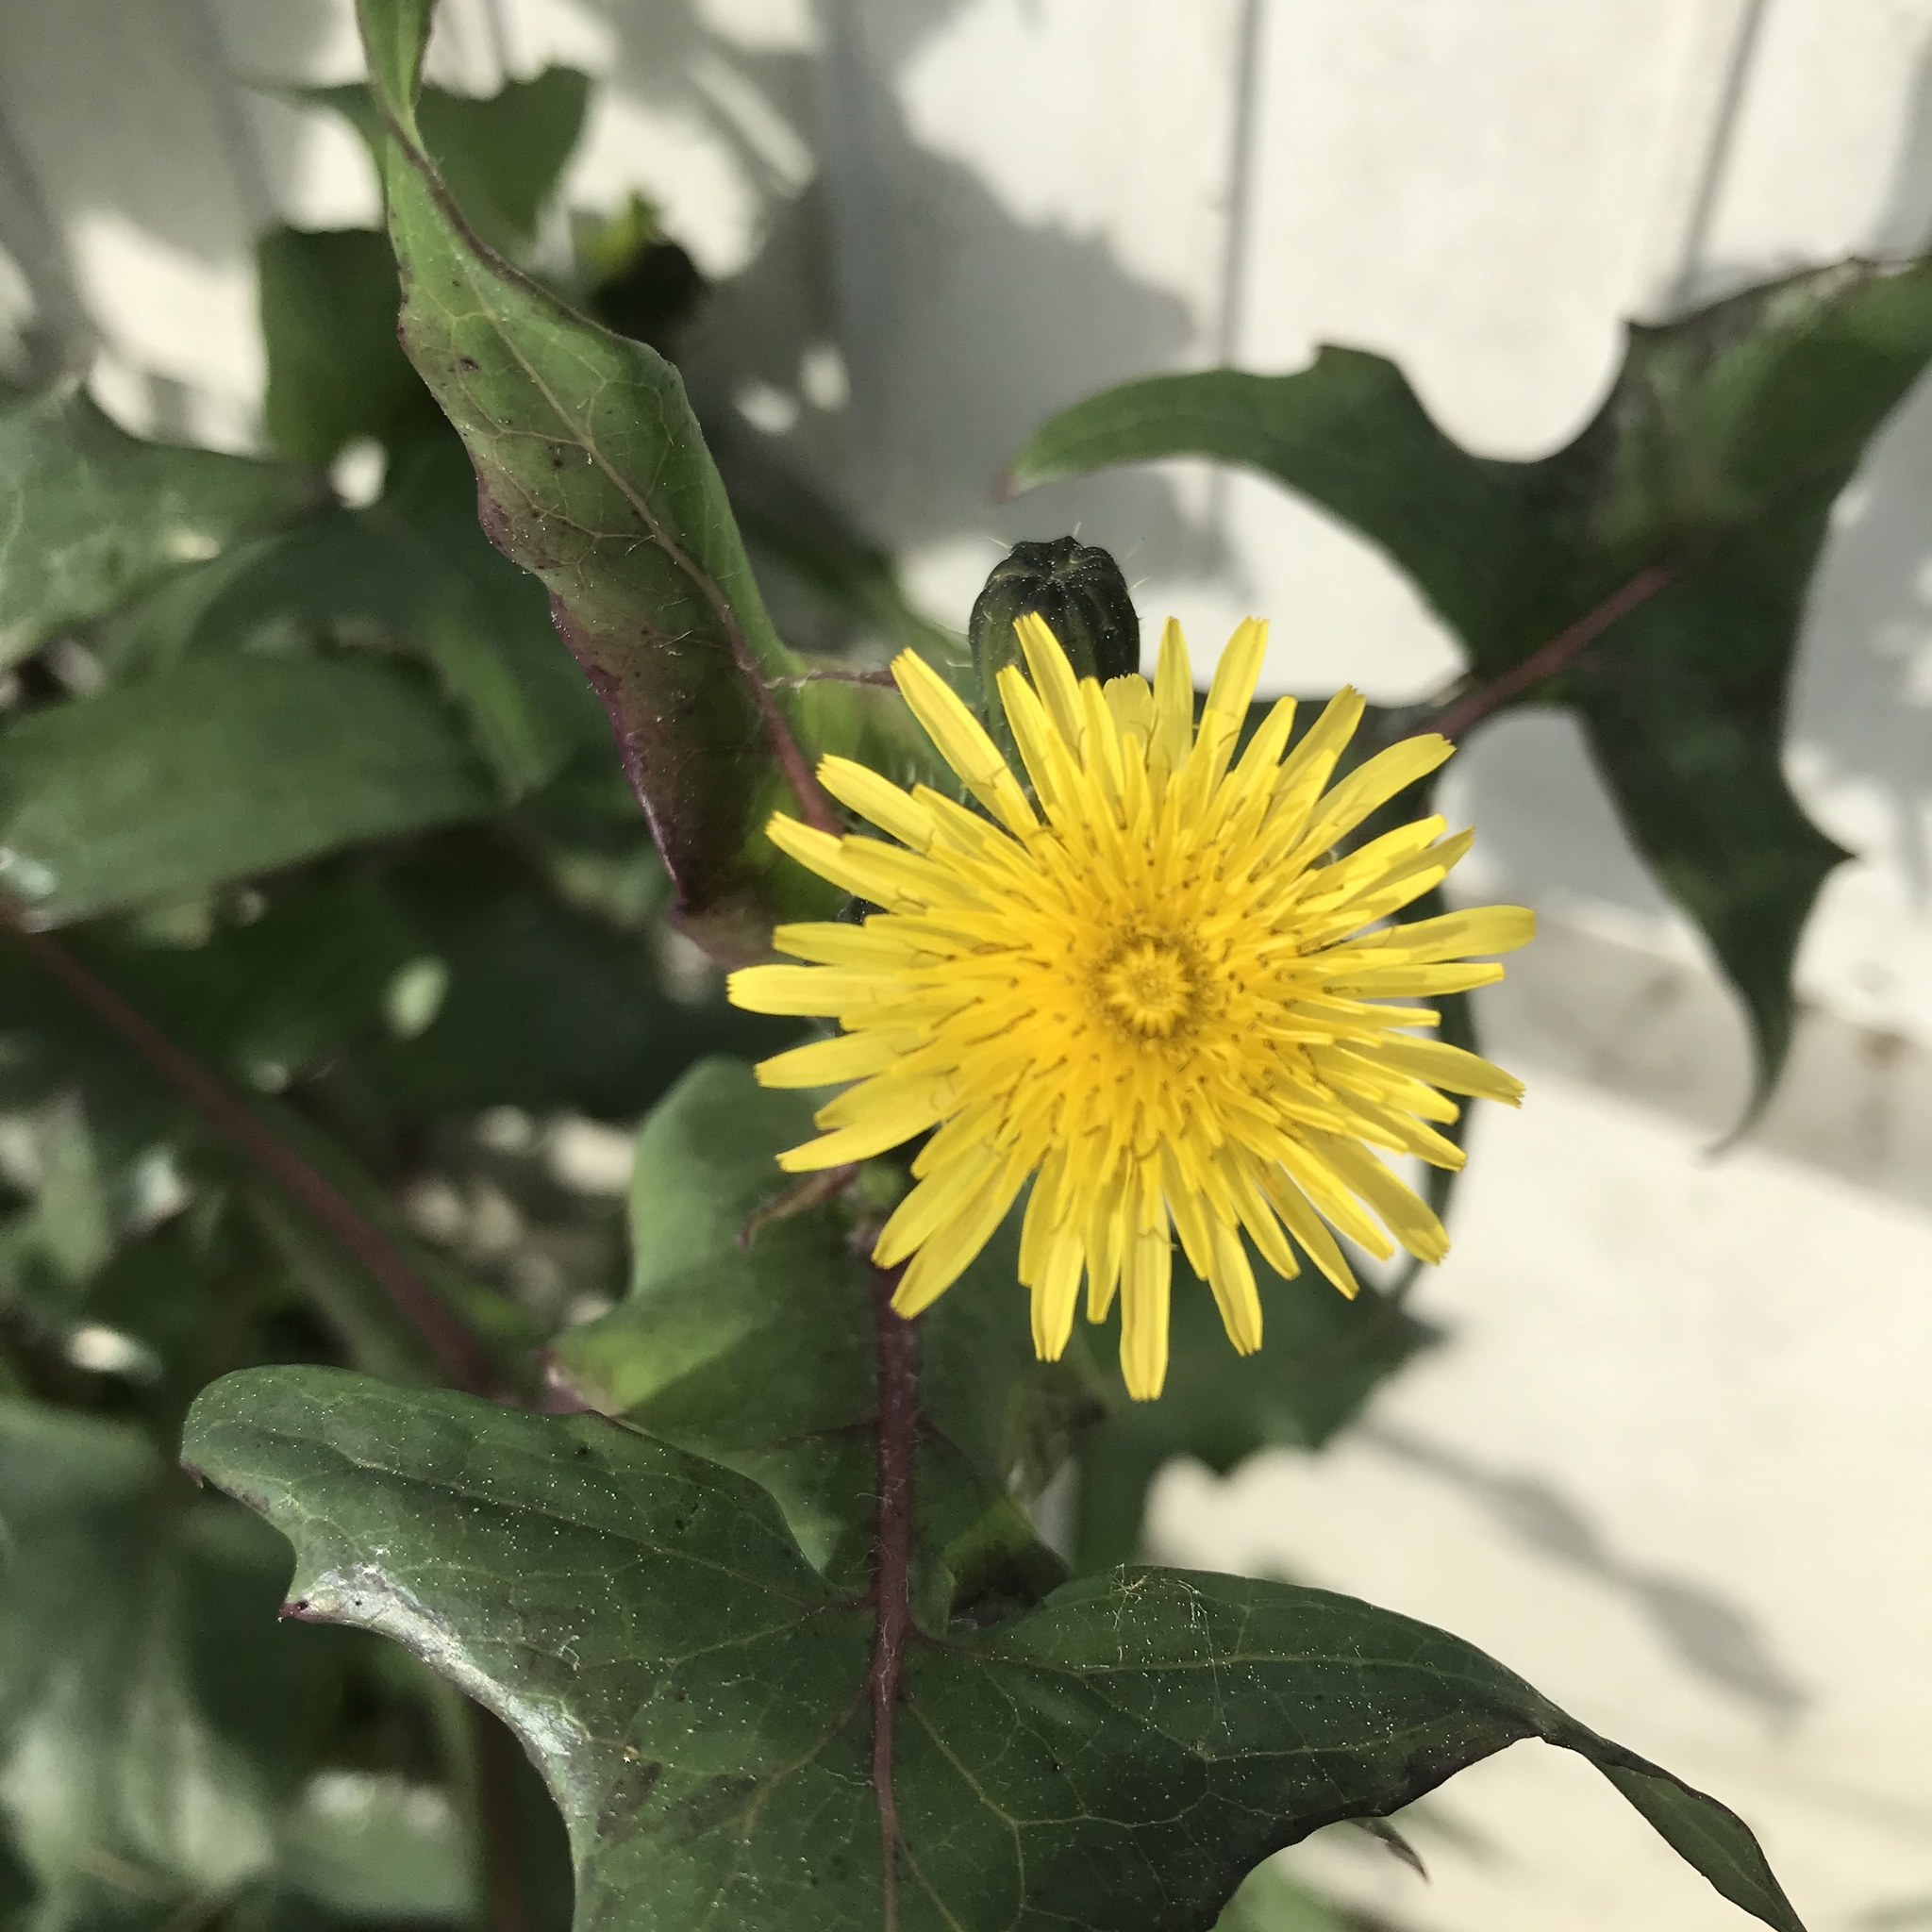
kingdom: Plantae
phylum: Tracheophyta
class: Magnoliopsida
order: Asterales
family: Asteraceae
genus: Sonchus
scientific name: Sonchus oleraceus
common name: Common sowthistle
